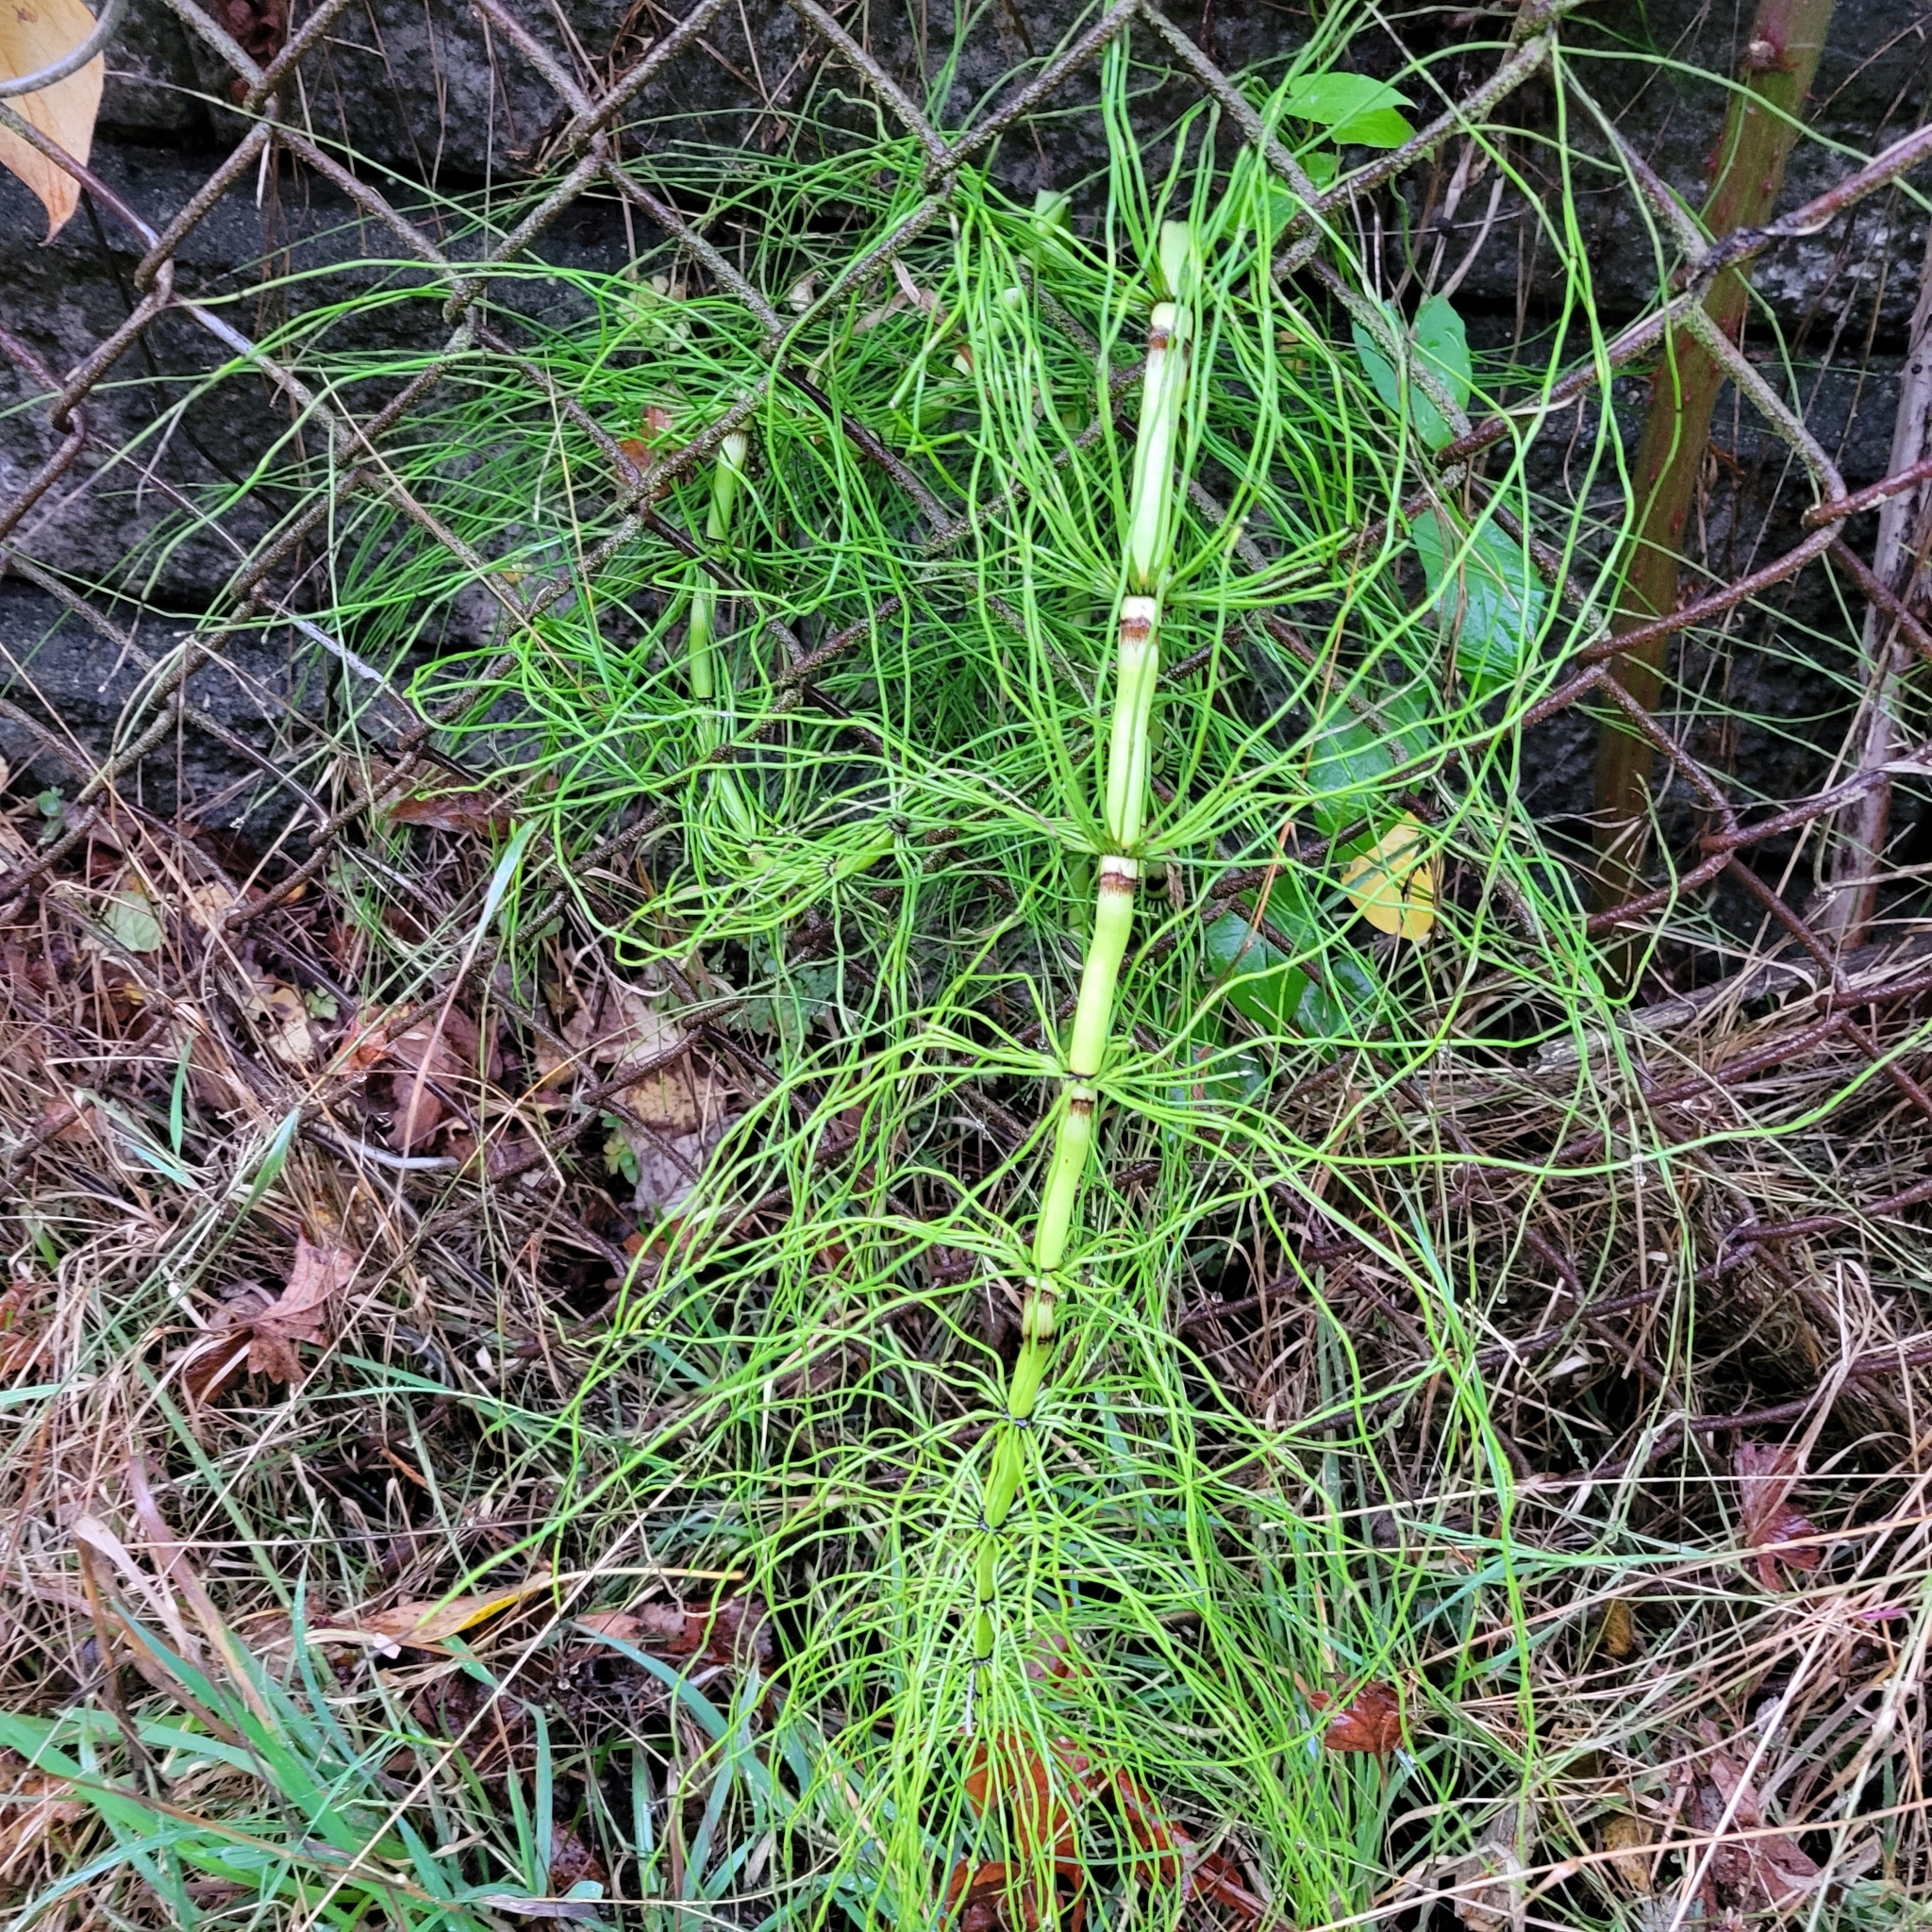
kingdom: Plantae
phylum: Tracheophyta
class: Polypodiopsida
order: Equisetales
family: Equisetaceae
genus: Equisetum
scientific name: Equisetum telmateia
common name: Great horsetail
